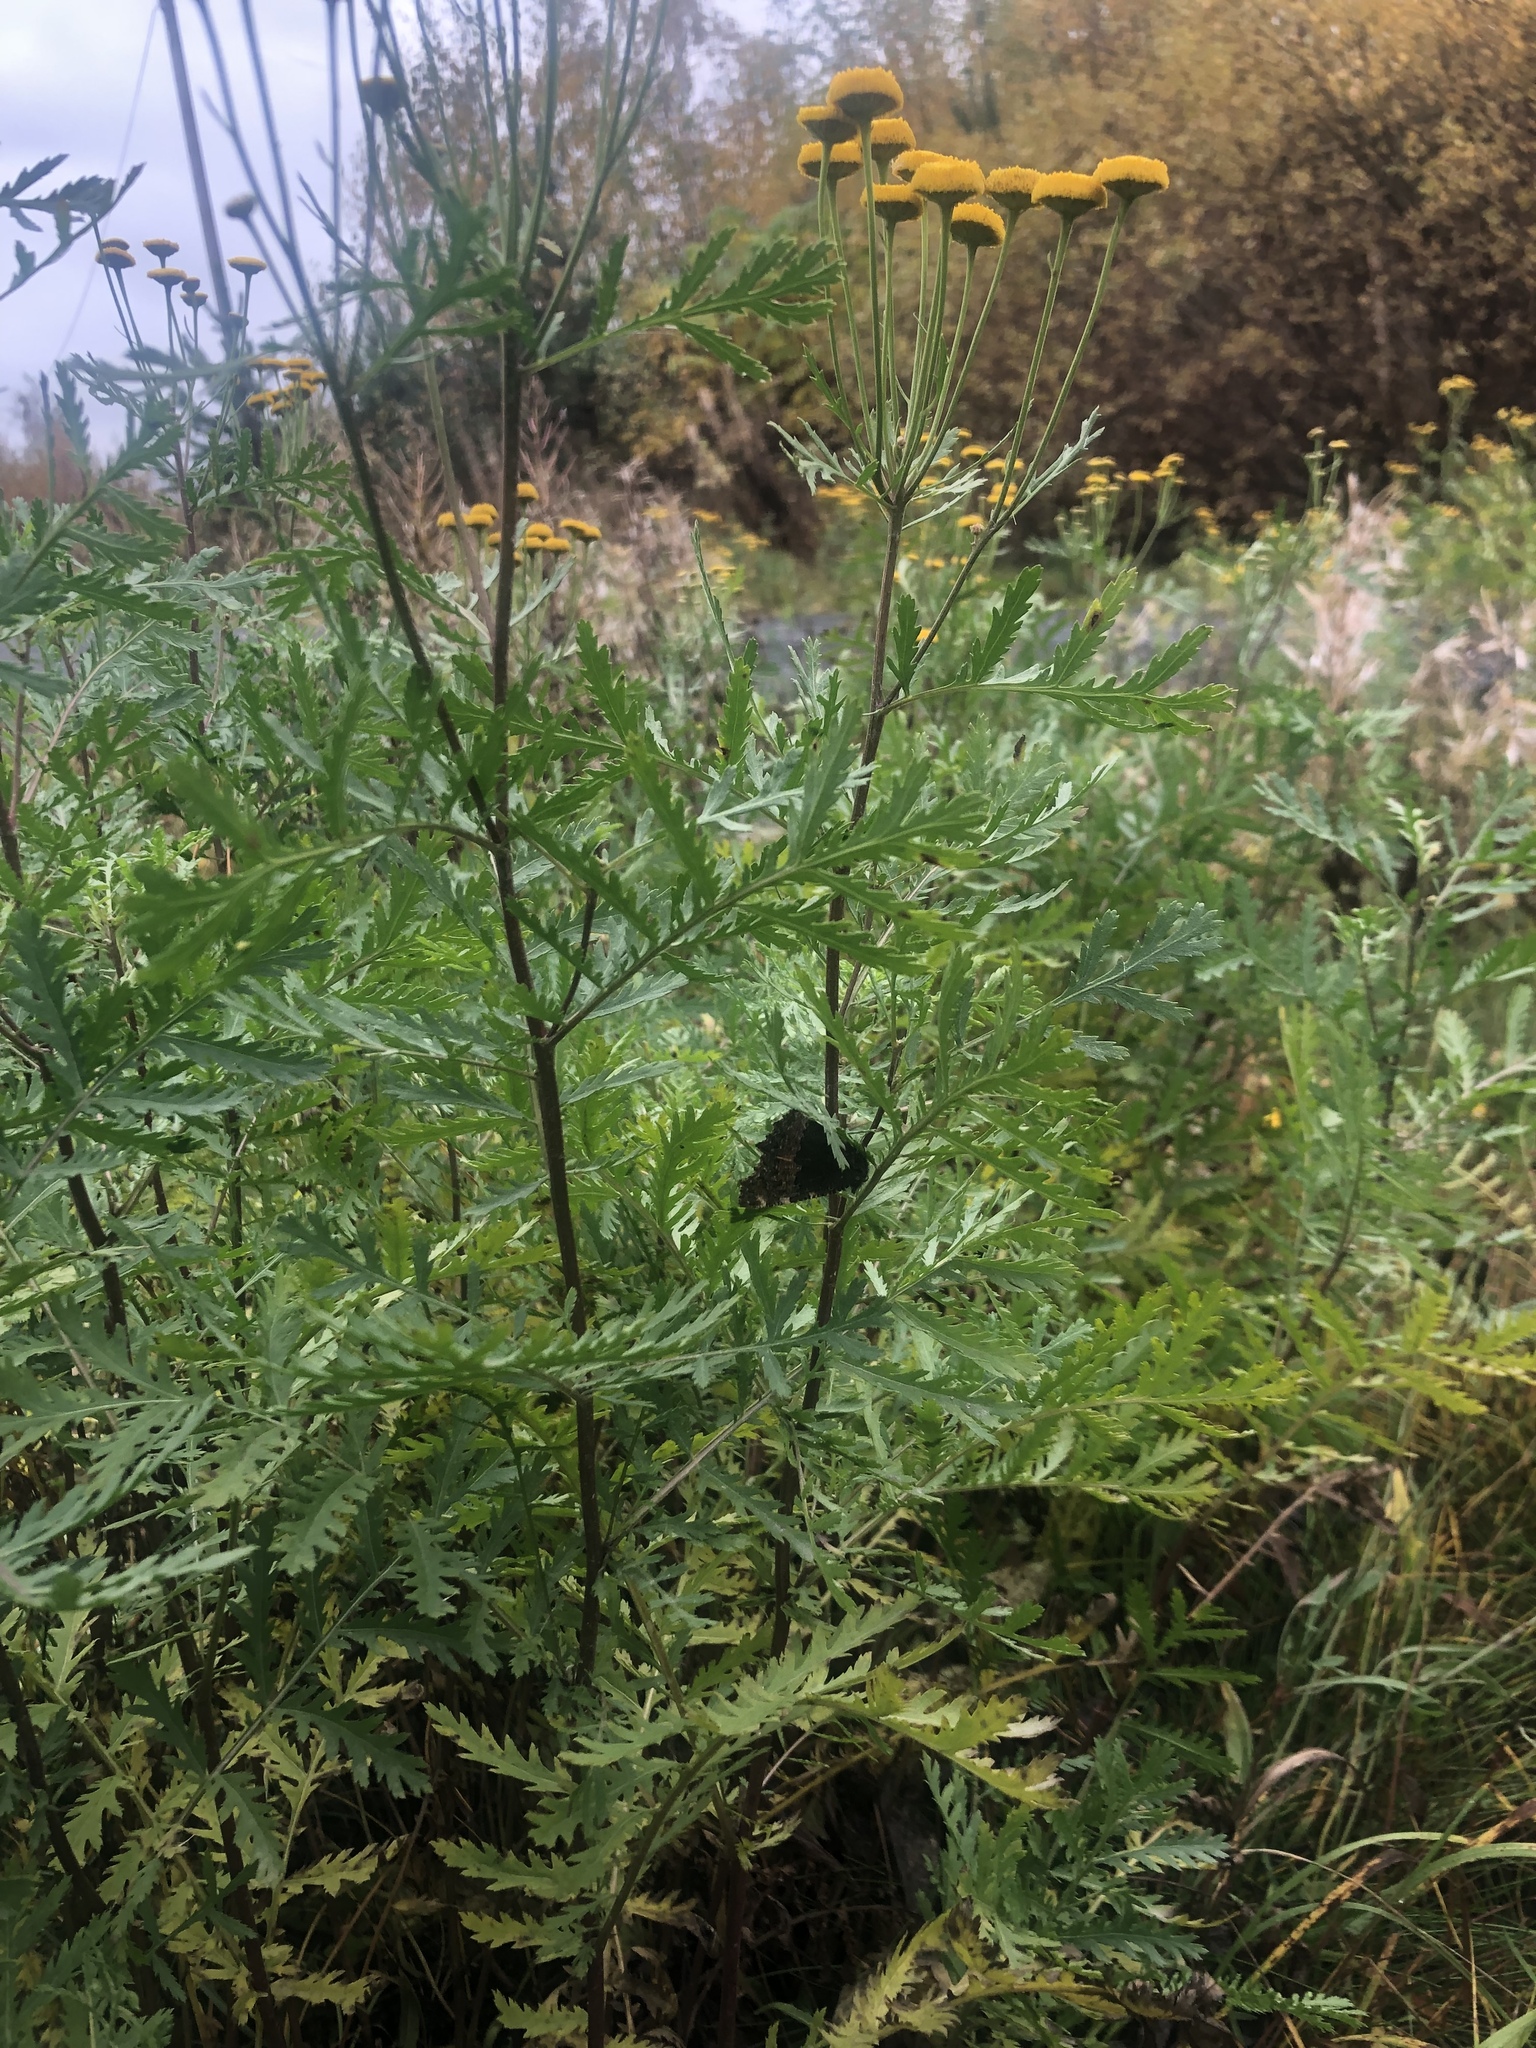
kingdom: Animalia
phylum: Arthropoda
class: Insecta
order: Lepidoptera
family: Nymphalidae
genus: Aglais
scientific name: Aglais urticae
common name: Small tortoiseshell
